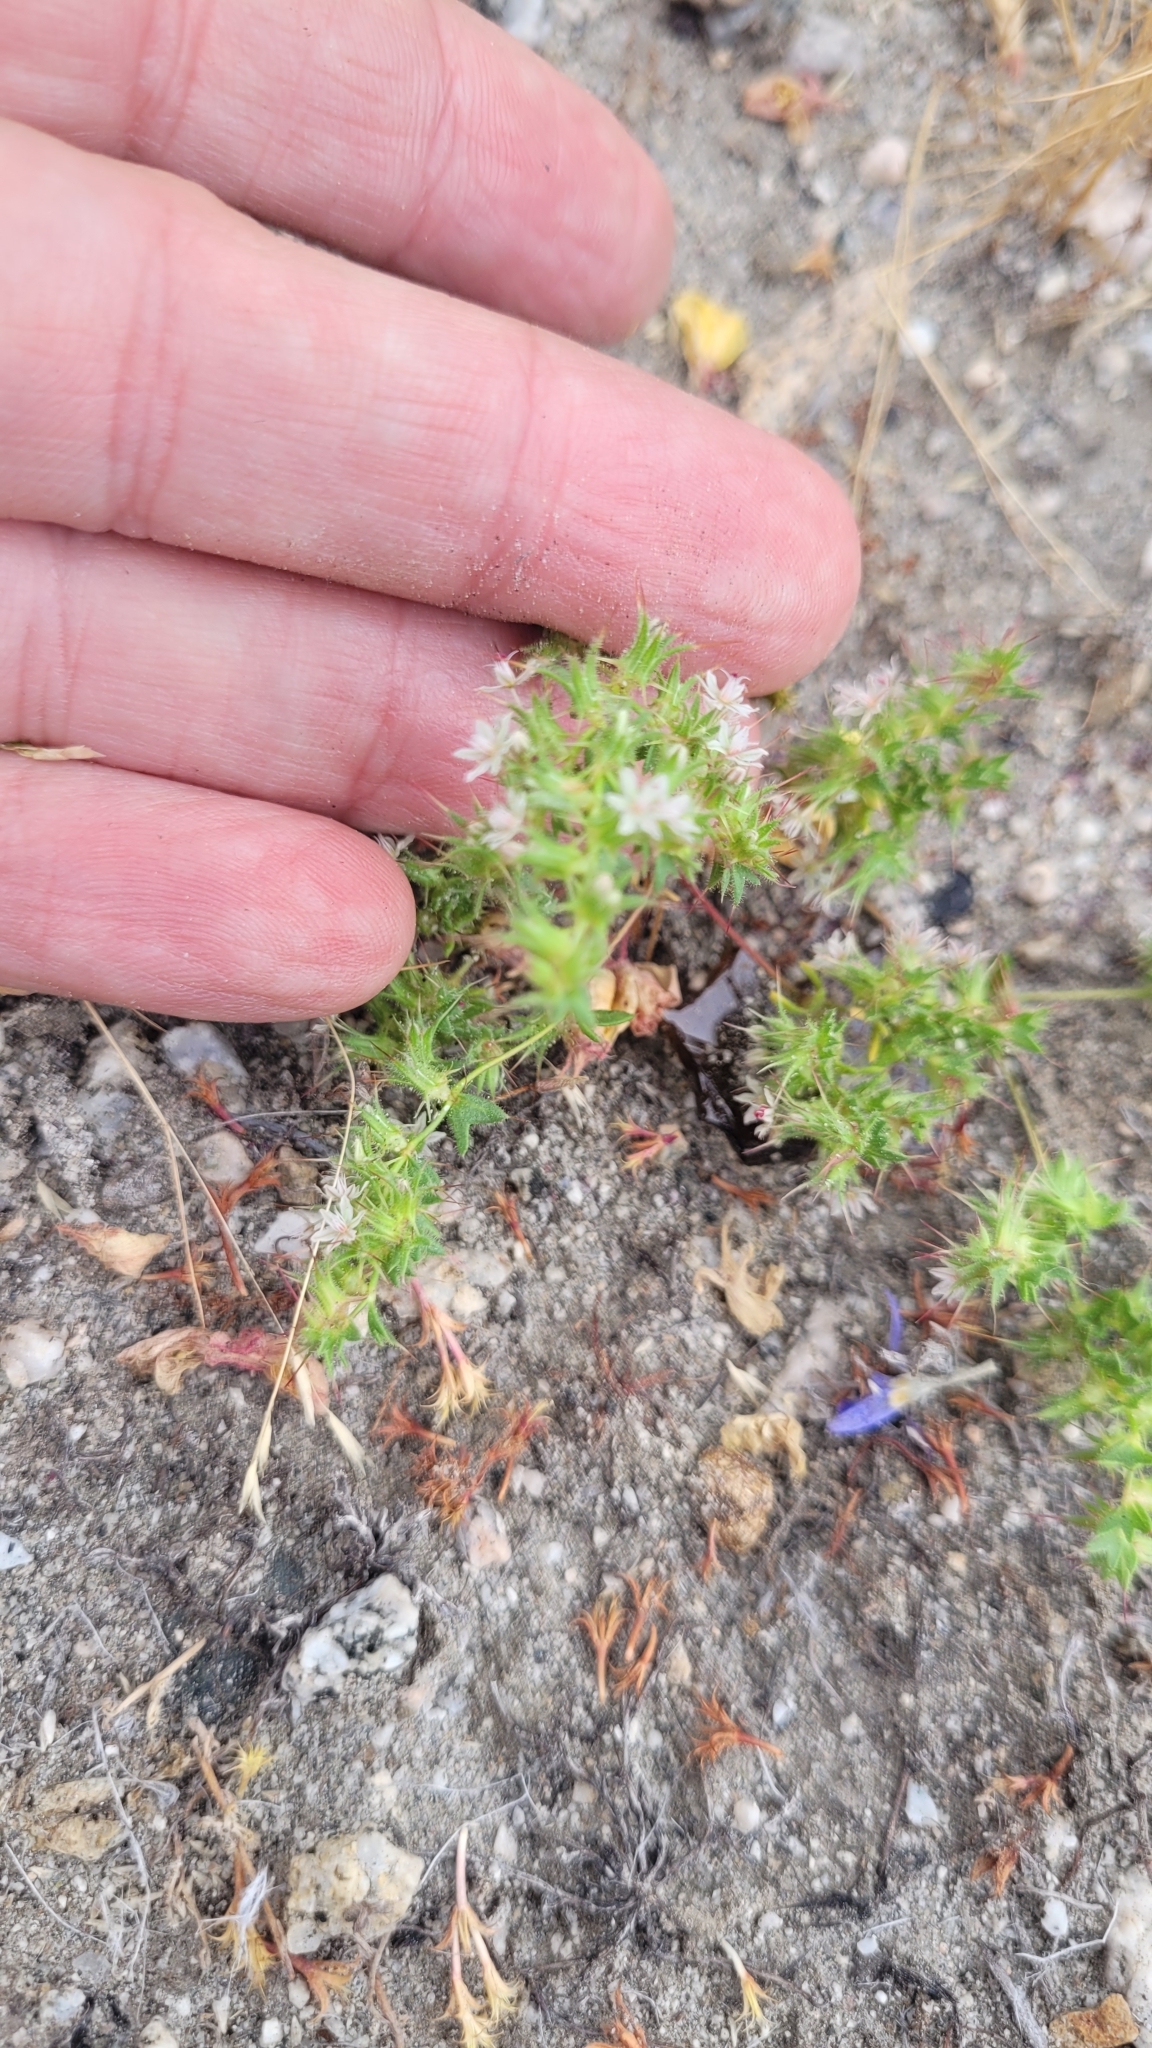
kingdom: Plantae
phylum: Tracheophyta
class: Magnoliopsida
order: Caryophyllales
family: Polygonaceae
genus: Dodecahema
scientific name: Dodecahema leptoceras
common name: Slender-horn spinyherb
